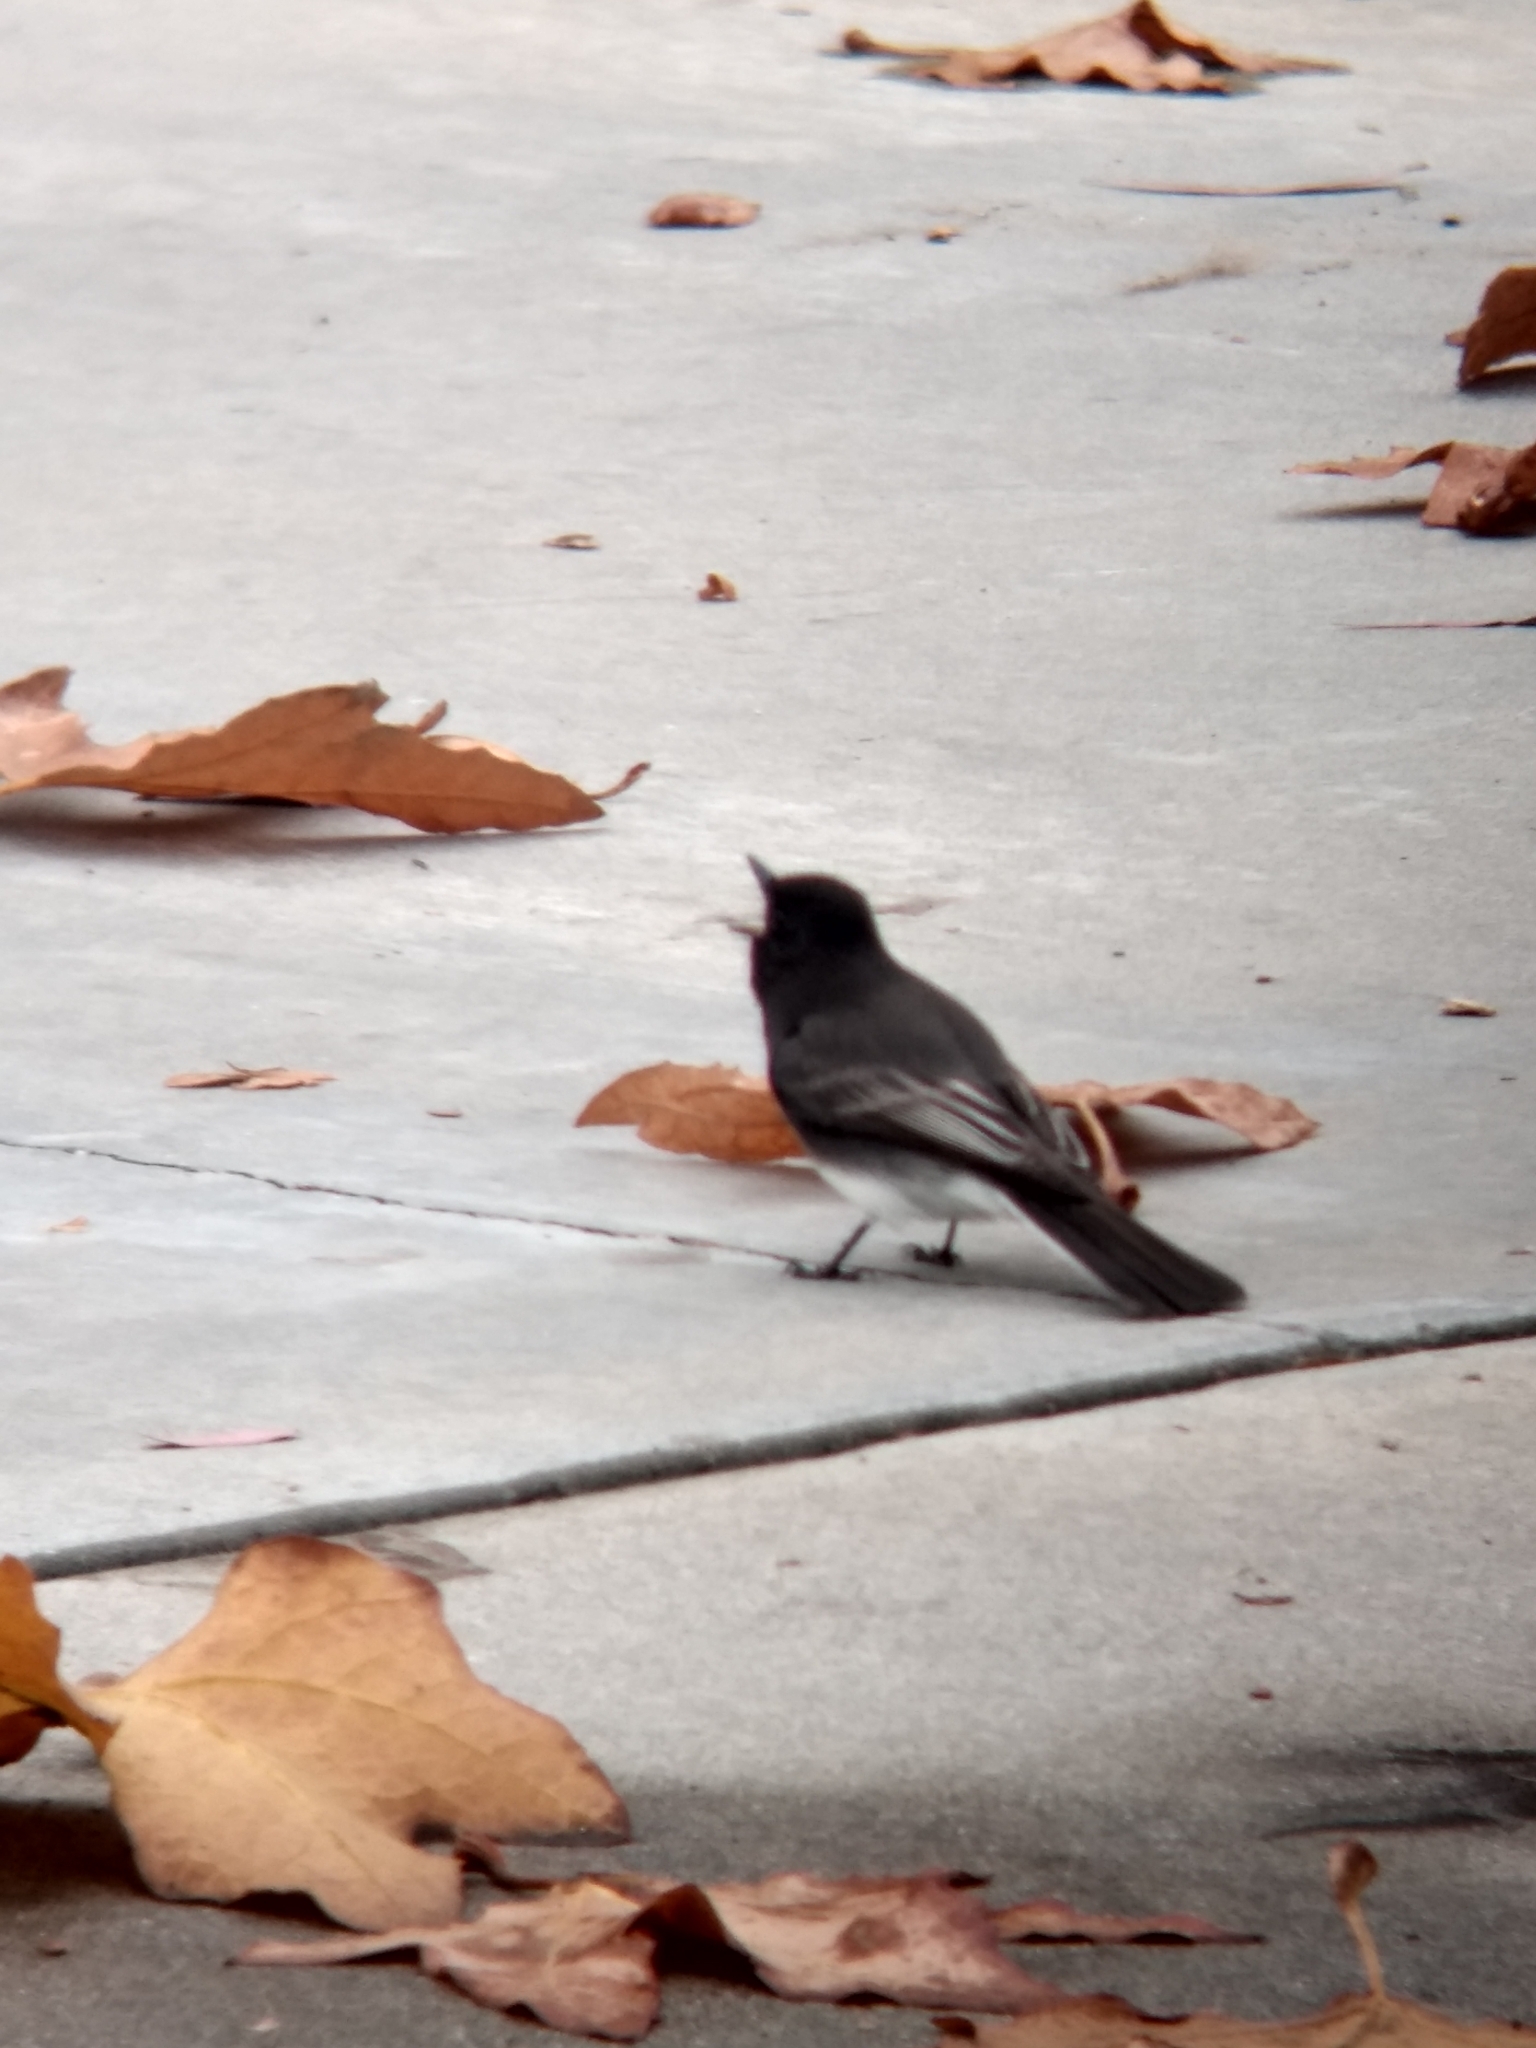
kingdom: Animalia
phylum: Chordata
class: Aves
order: Passeriformes
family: Tyrannidae
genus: Sayornis
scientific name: Sayornis nigricans
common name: Black phoebe
